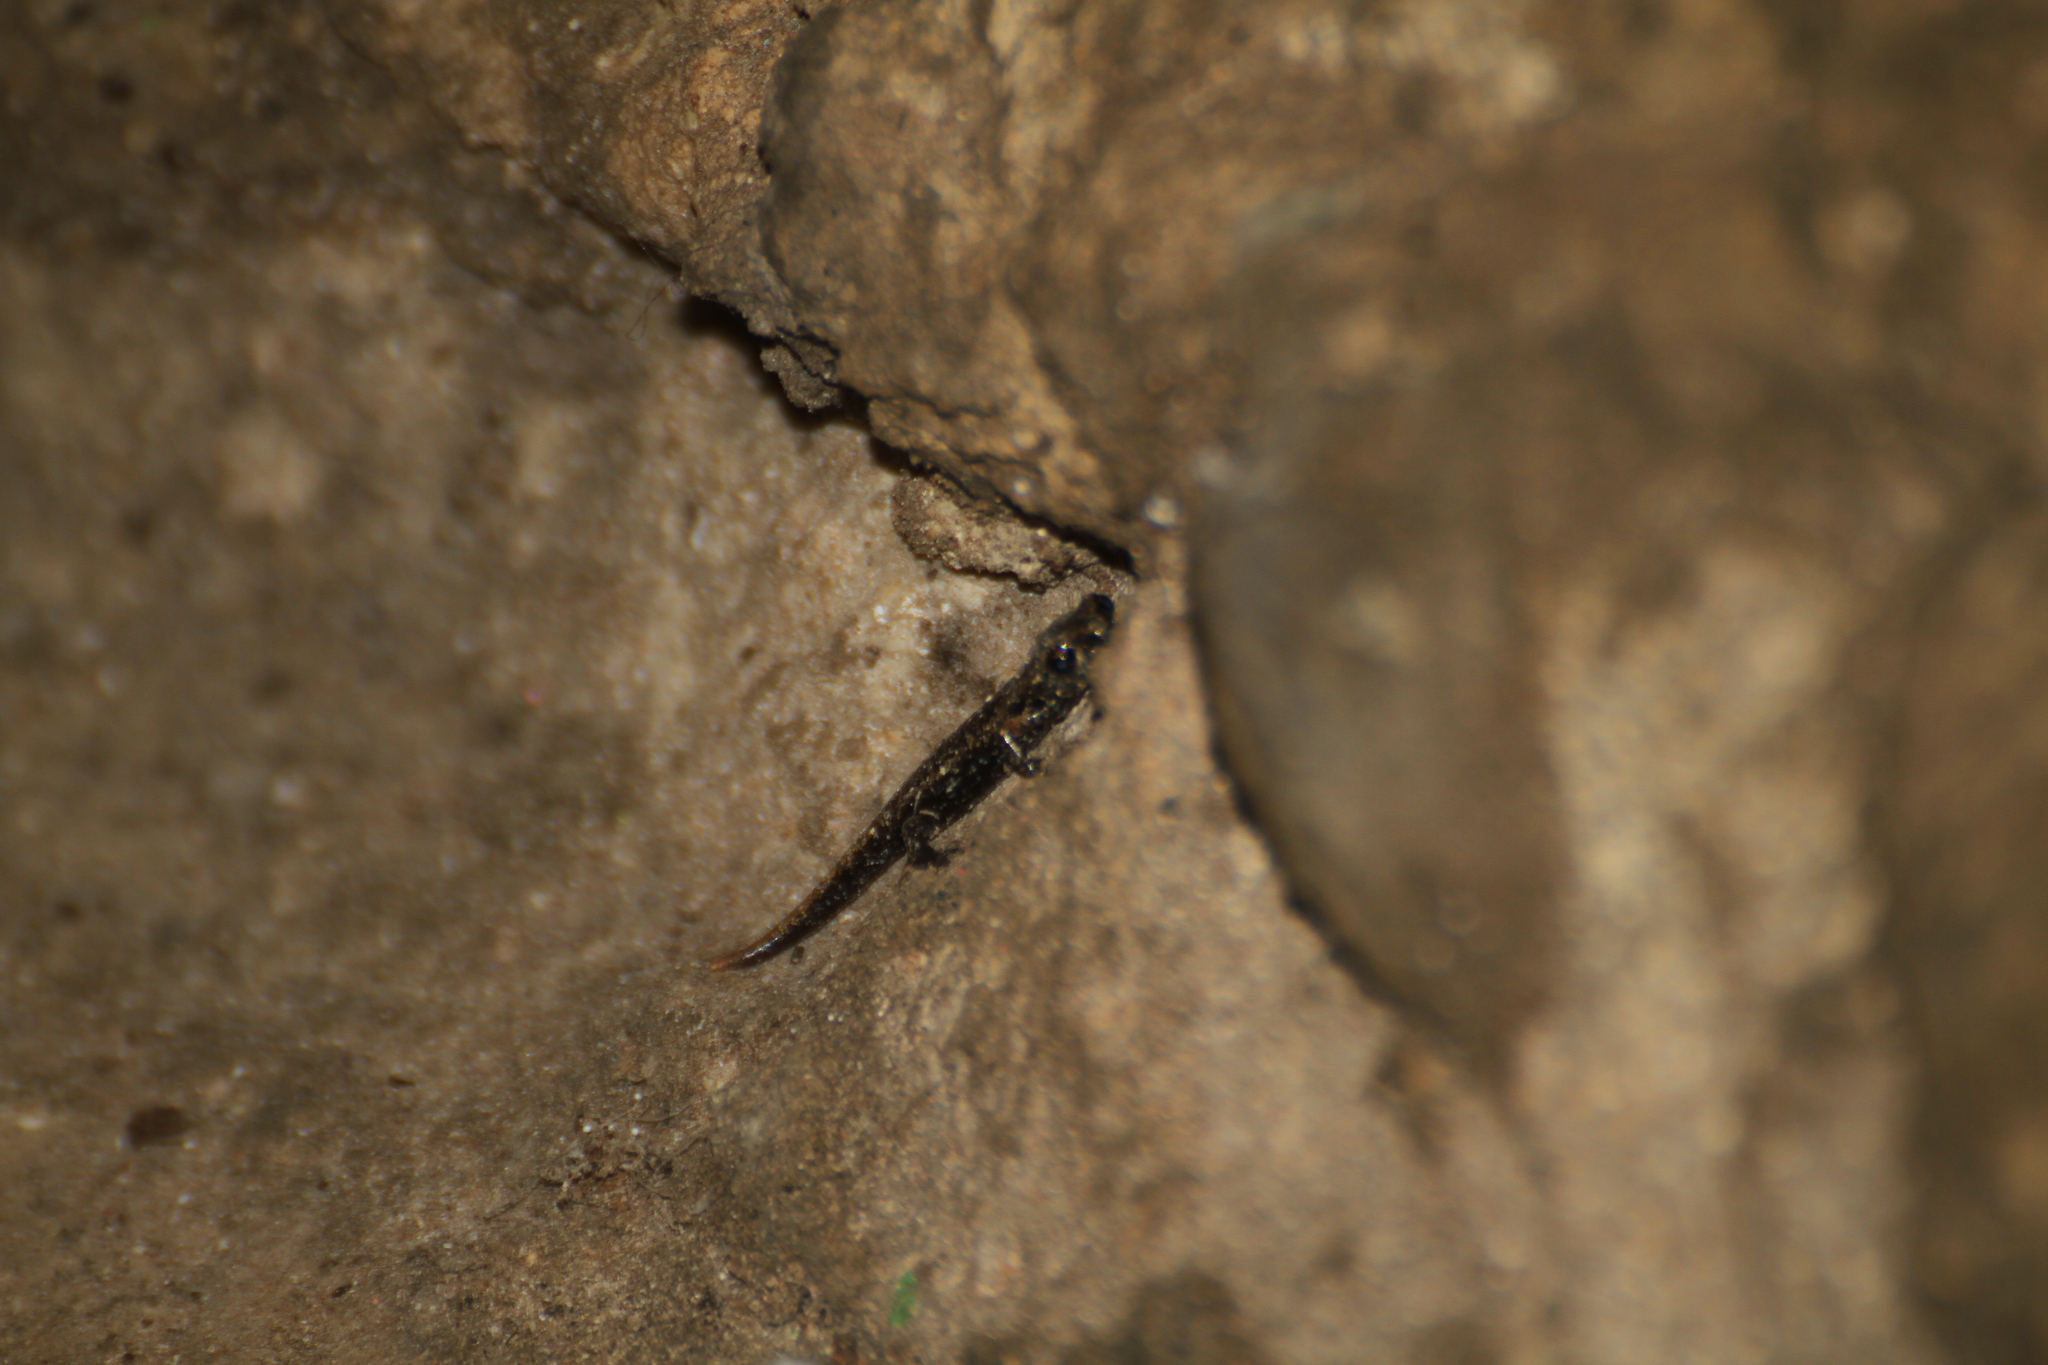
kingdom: Animalia
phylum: Chordata
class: Amphibia
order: Caudata
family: Plethodontidae
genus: Speleomantes
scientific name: Speleomantes strinatii
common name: French cave salamander
